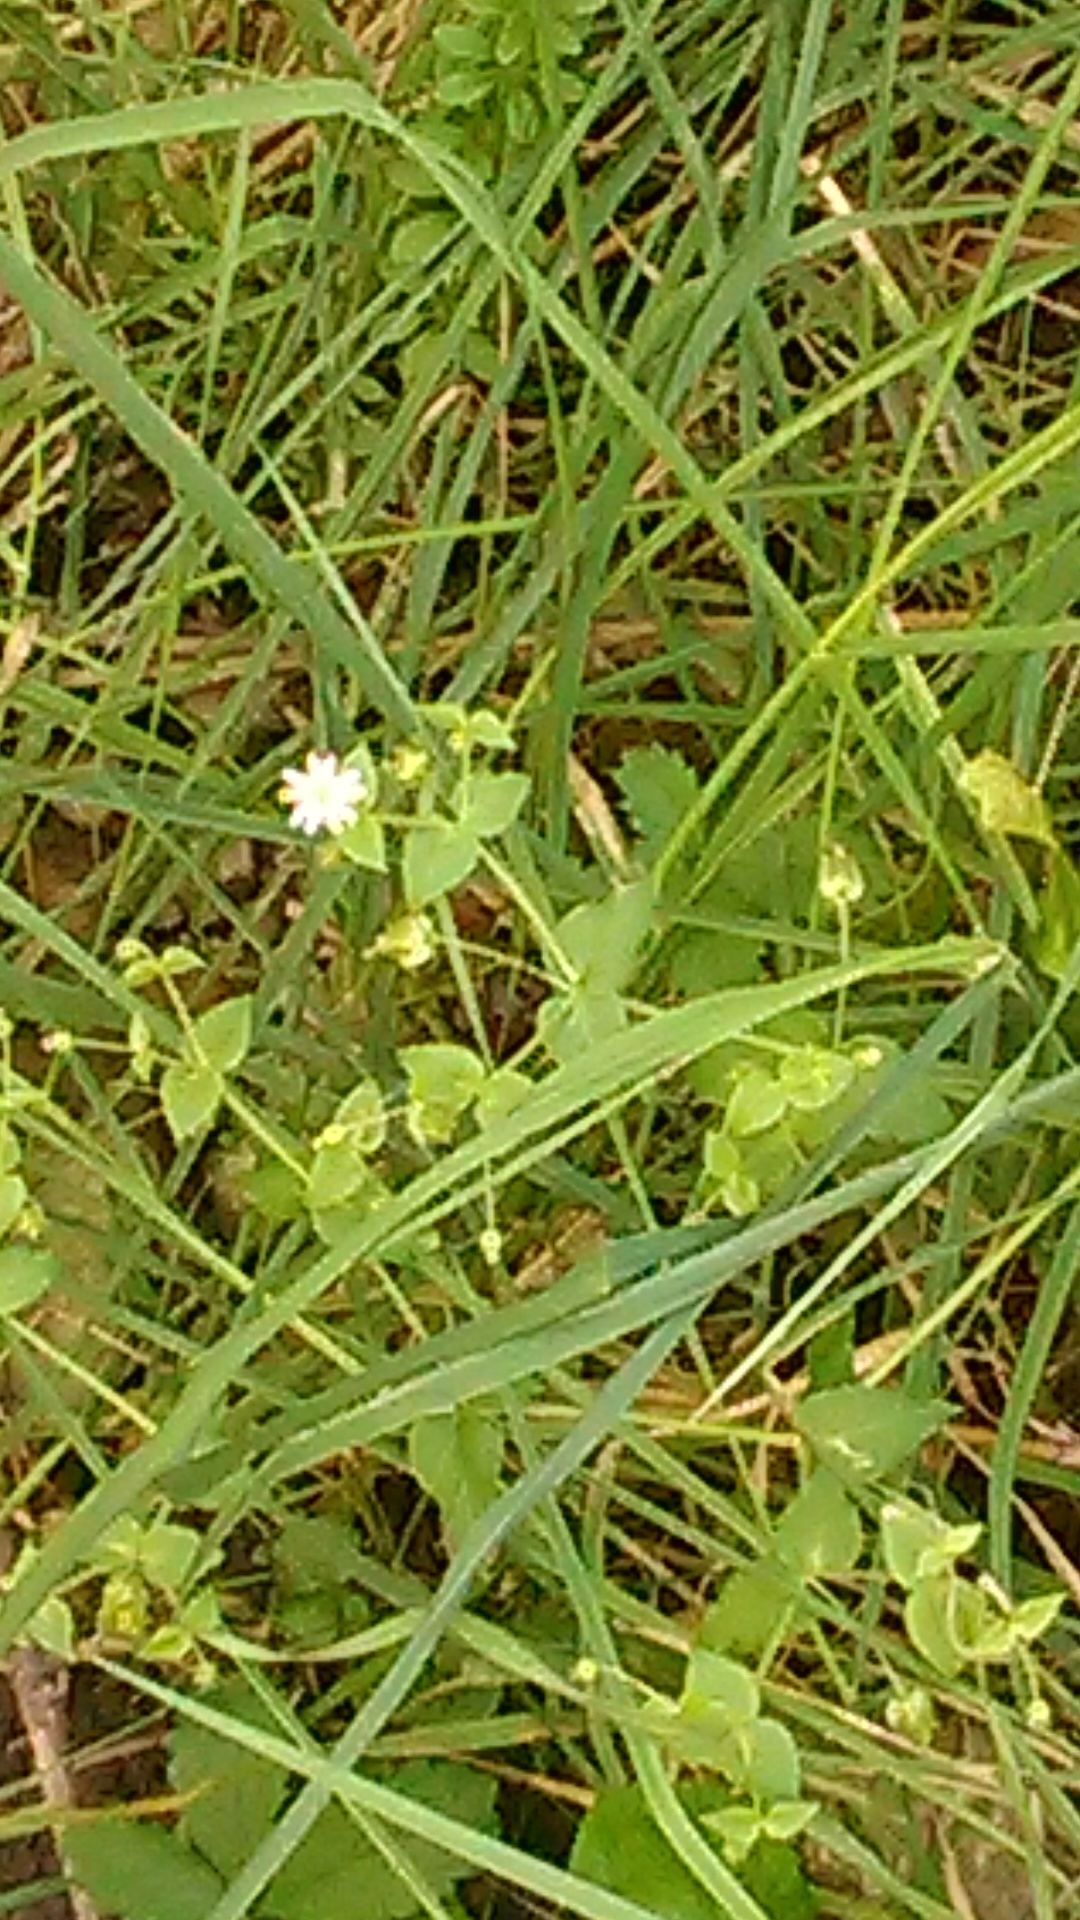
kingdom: Plantae
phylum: Tracheophyta
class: Magnoliopsida
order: Caryophyllales
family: Caryophyllaceae
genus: Stellaria
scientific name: Stellaria aquatica
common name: Water chickweed
